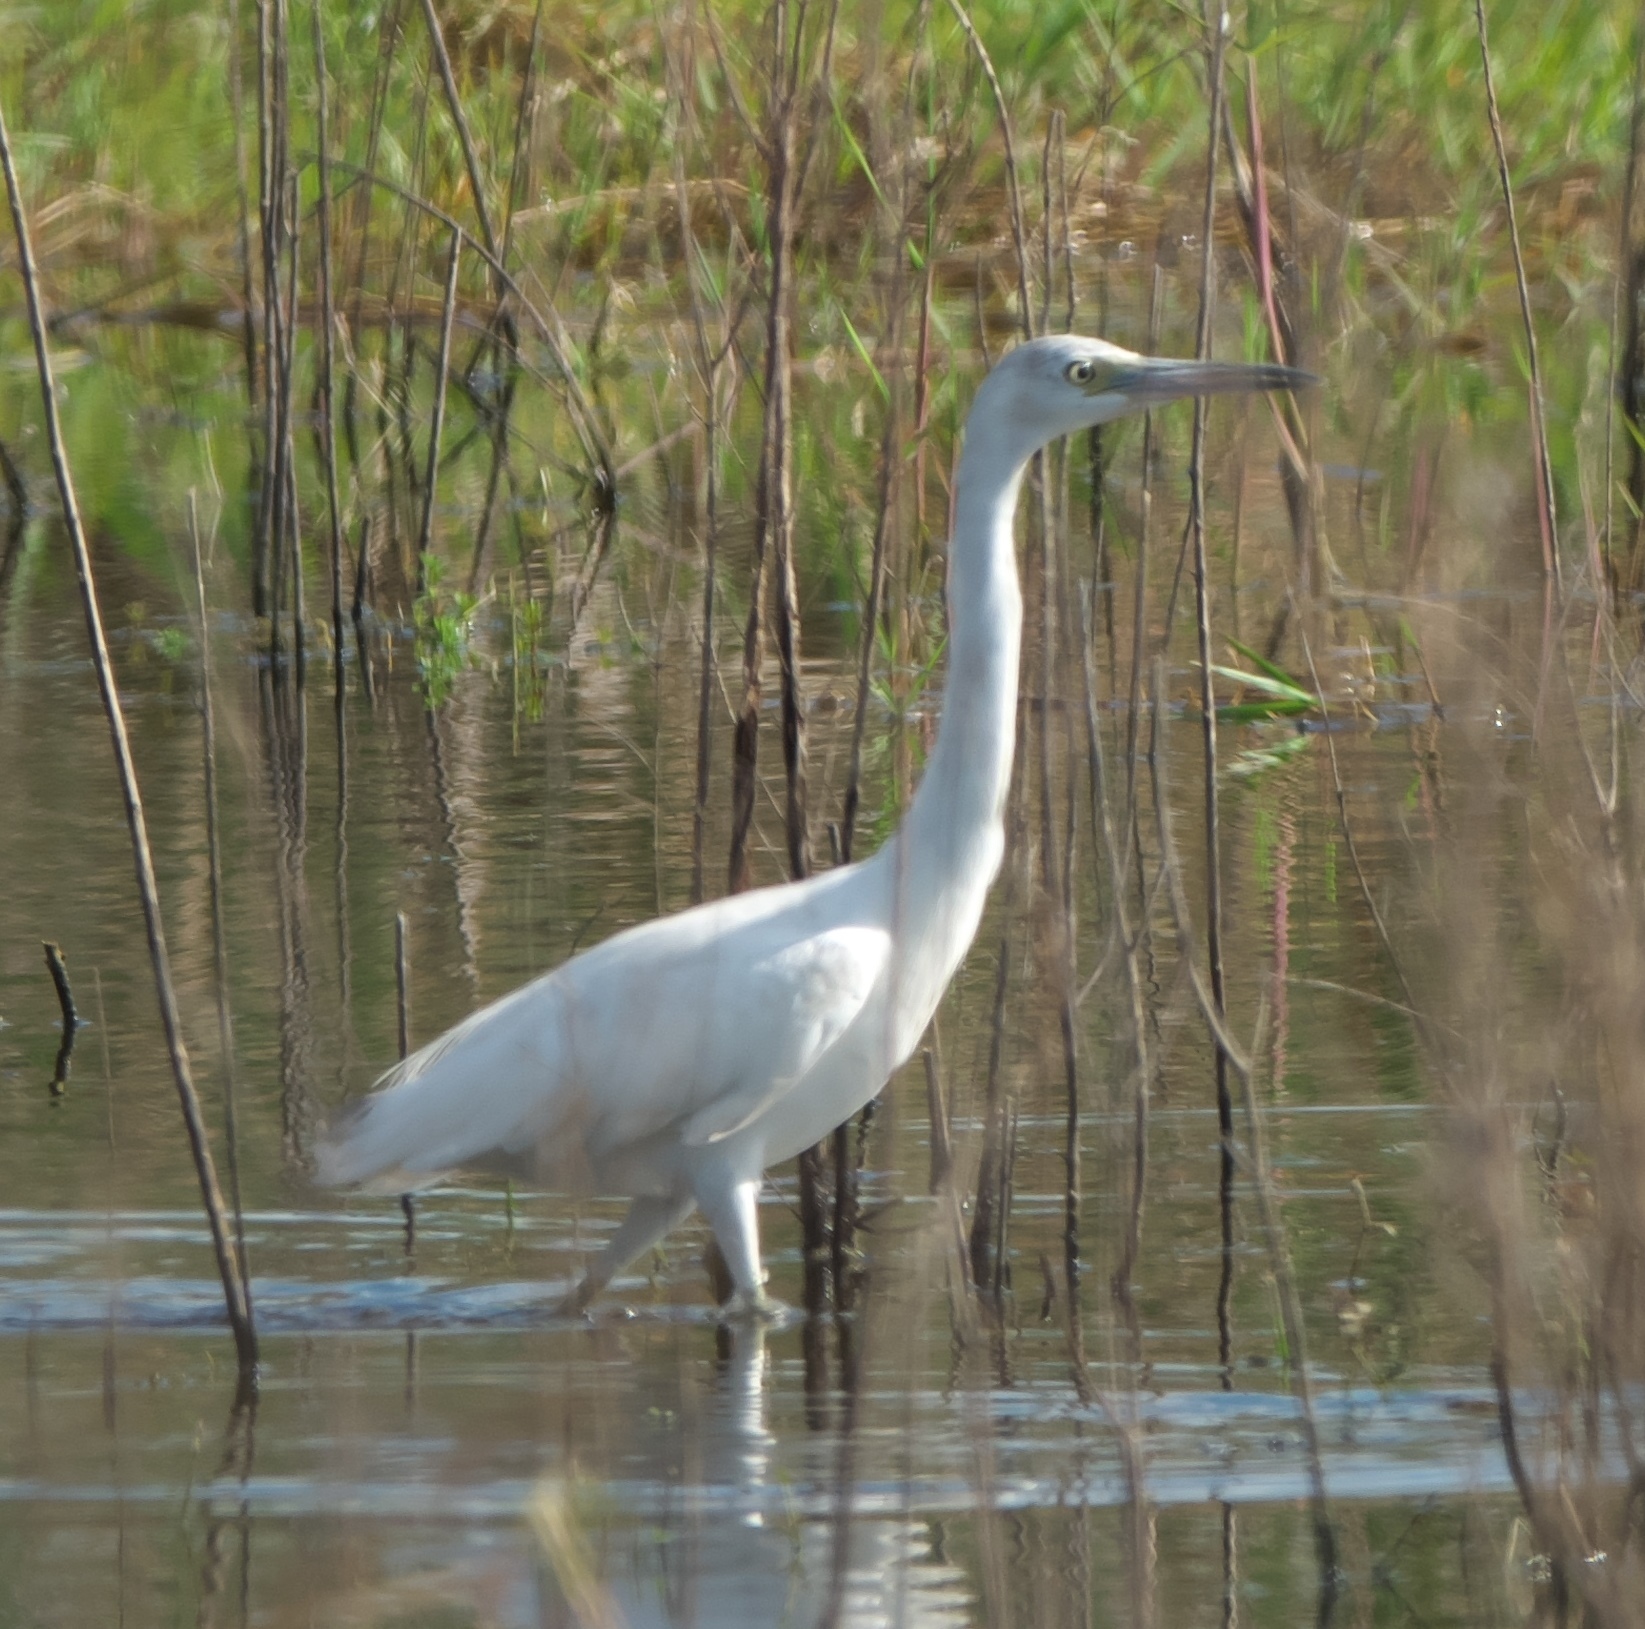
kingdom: Animalia
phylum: Chordata
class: Aves
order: Pelecaniformes
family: Ardeidae
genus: Egretta
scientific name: Egretta caerulea
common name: Little blue heron
